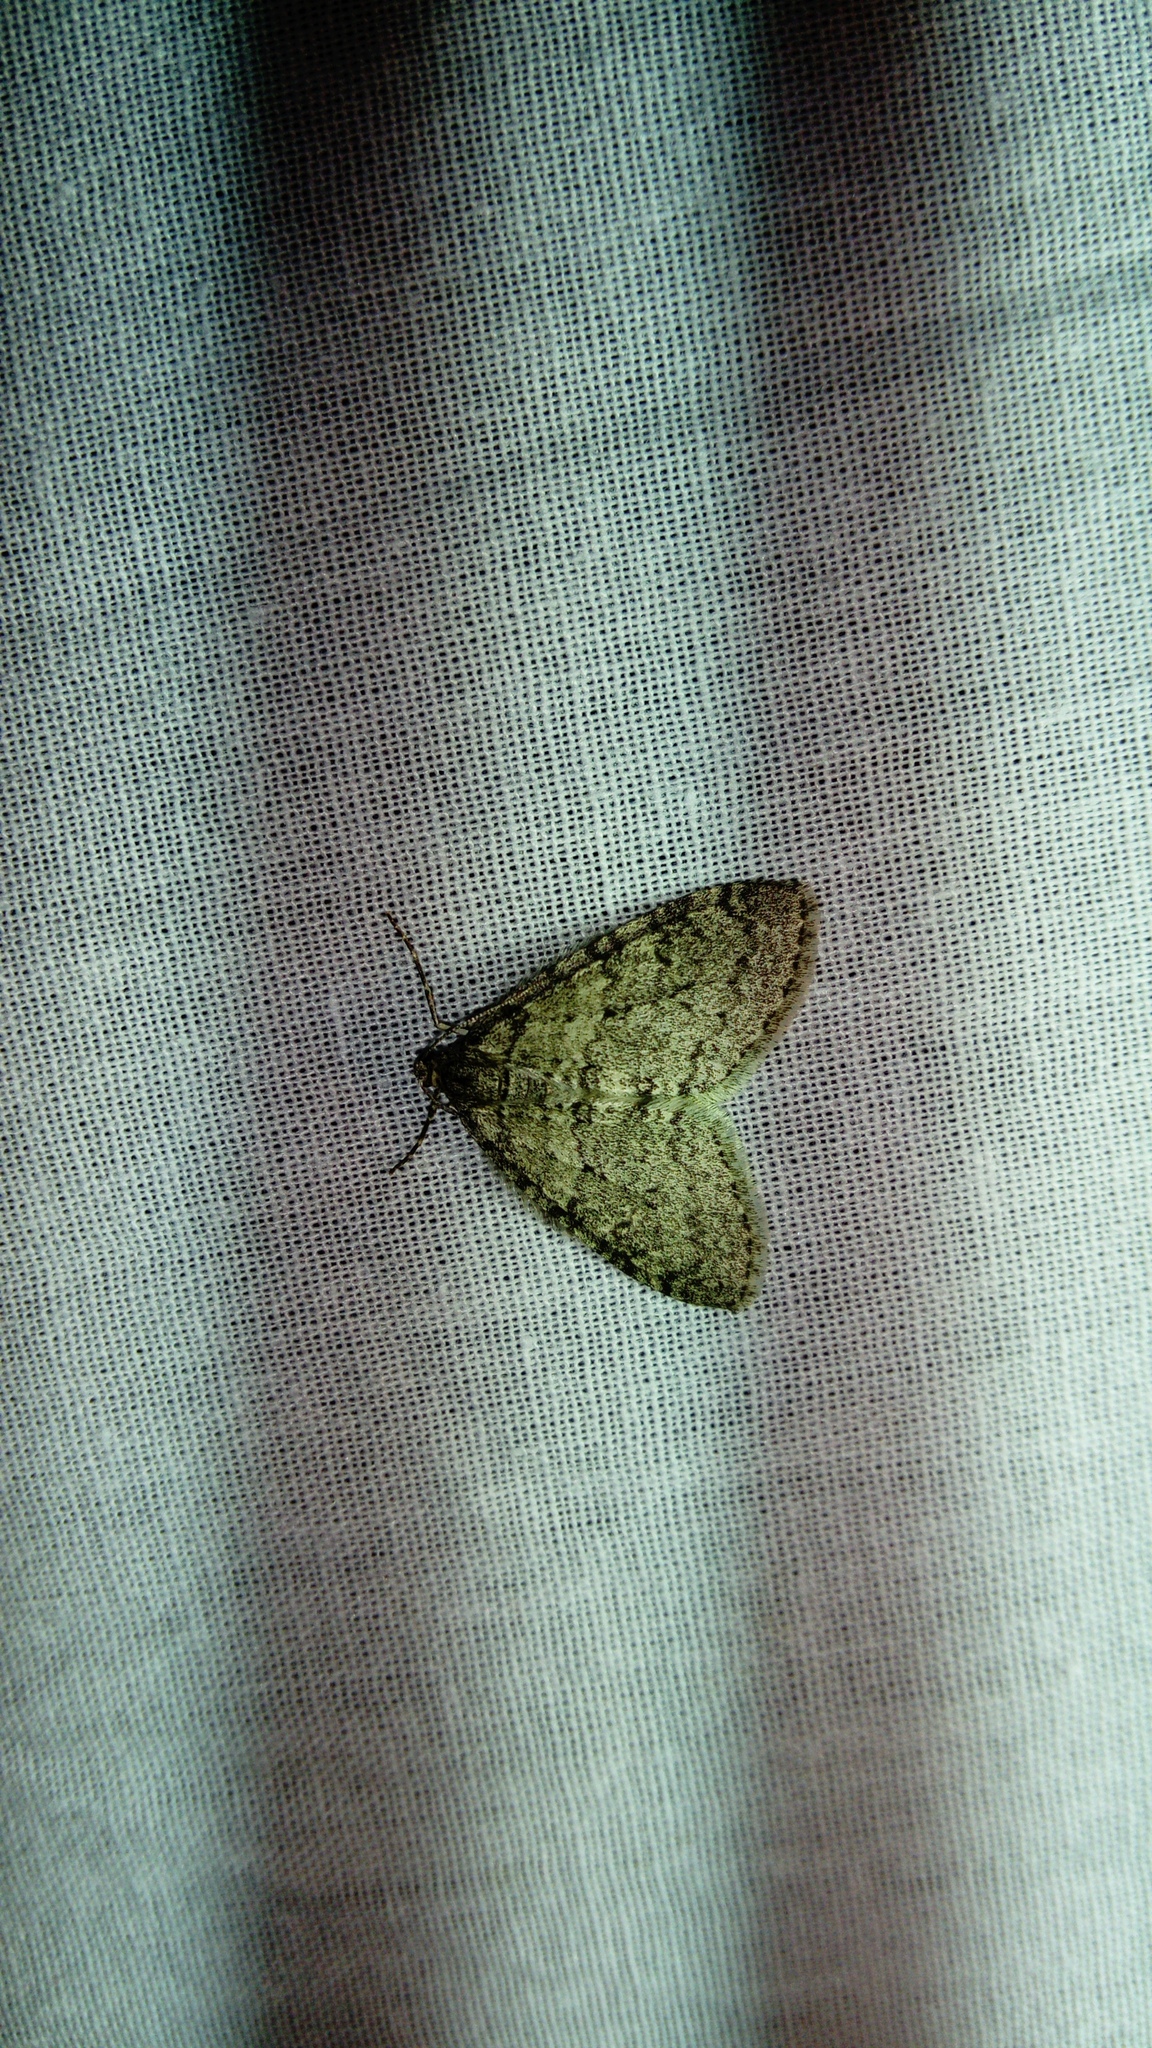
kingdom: Animalia
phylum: Arthropoda
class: Insecta
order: Lepidoptera
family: Geometridae
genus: Trichopteryx
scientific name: Trichopteryx carpinata
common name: Early tooth-striped
